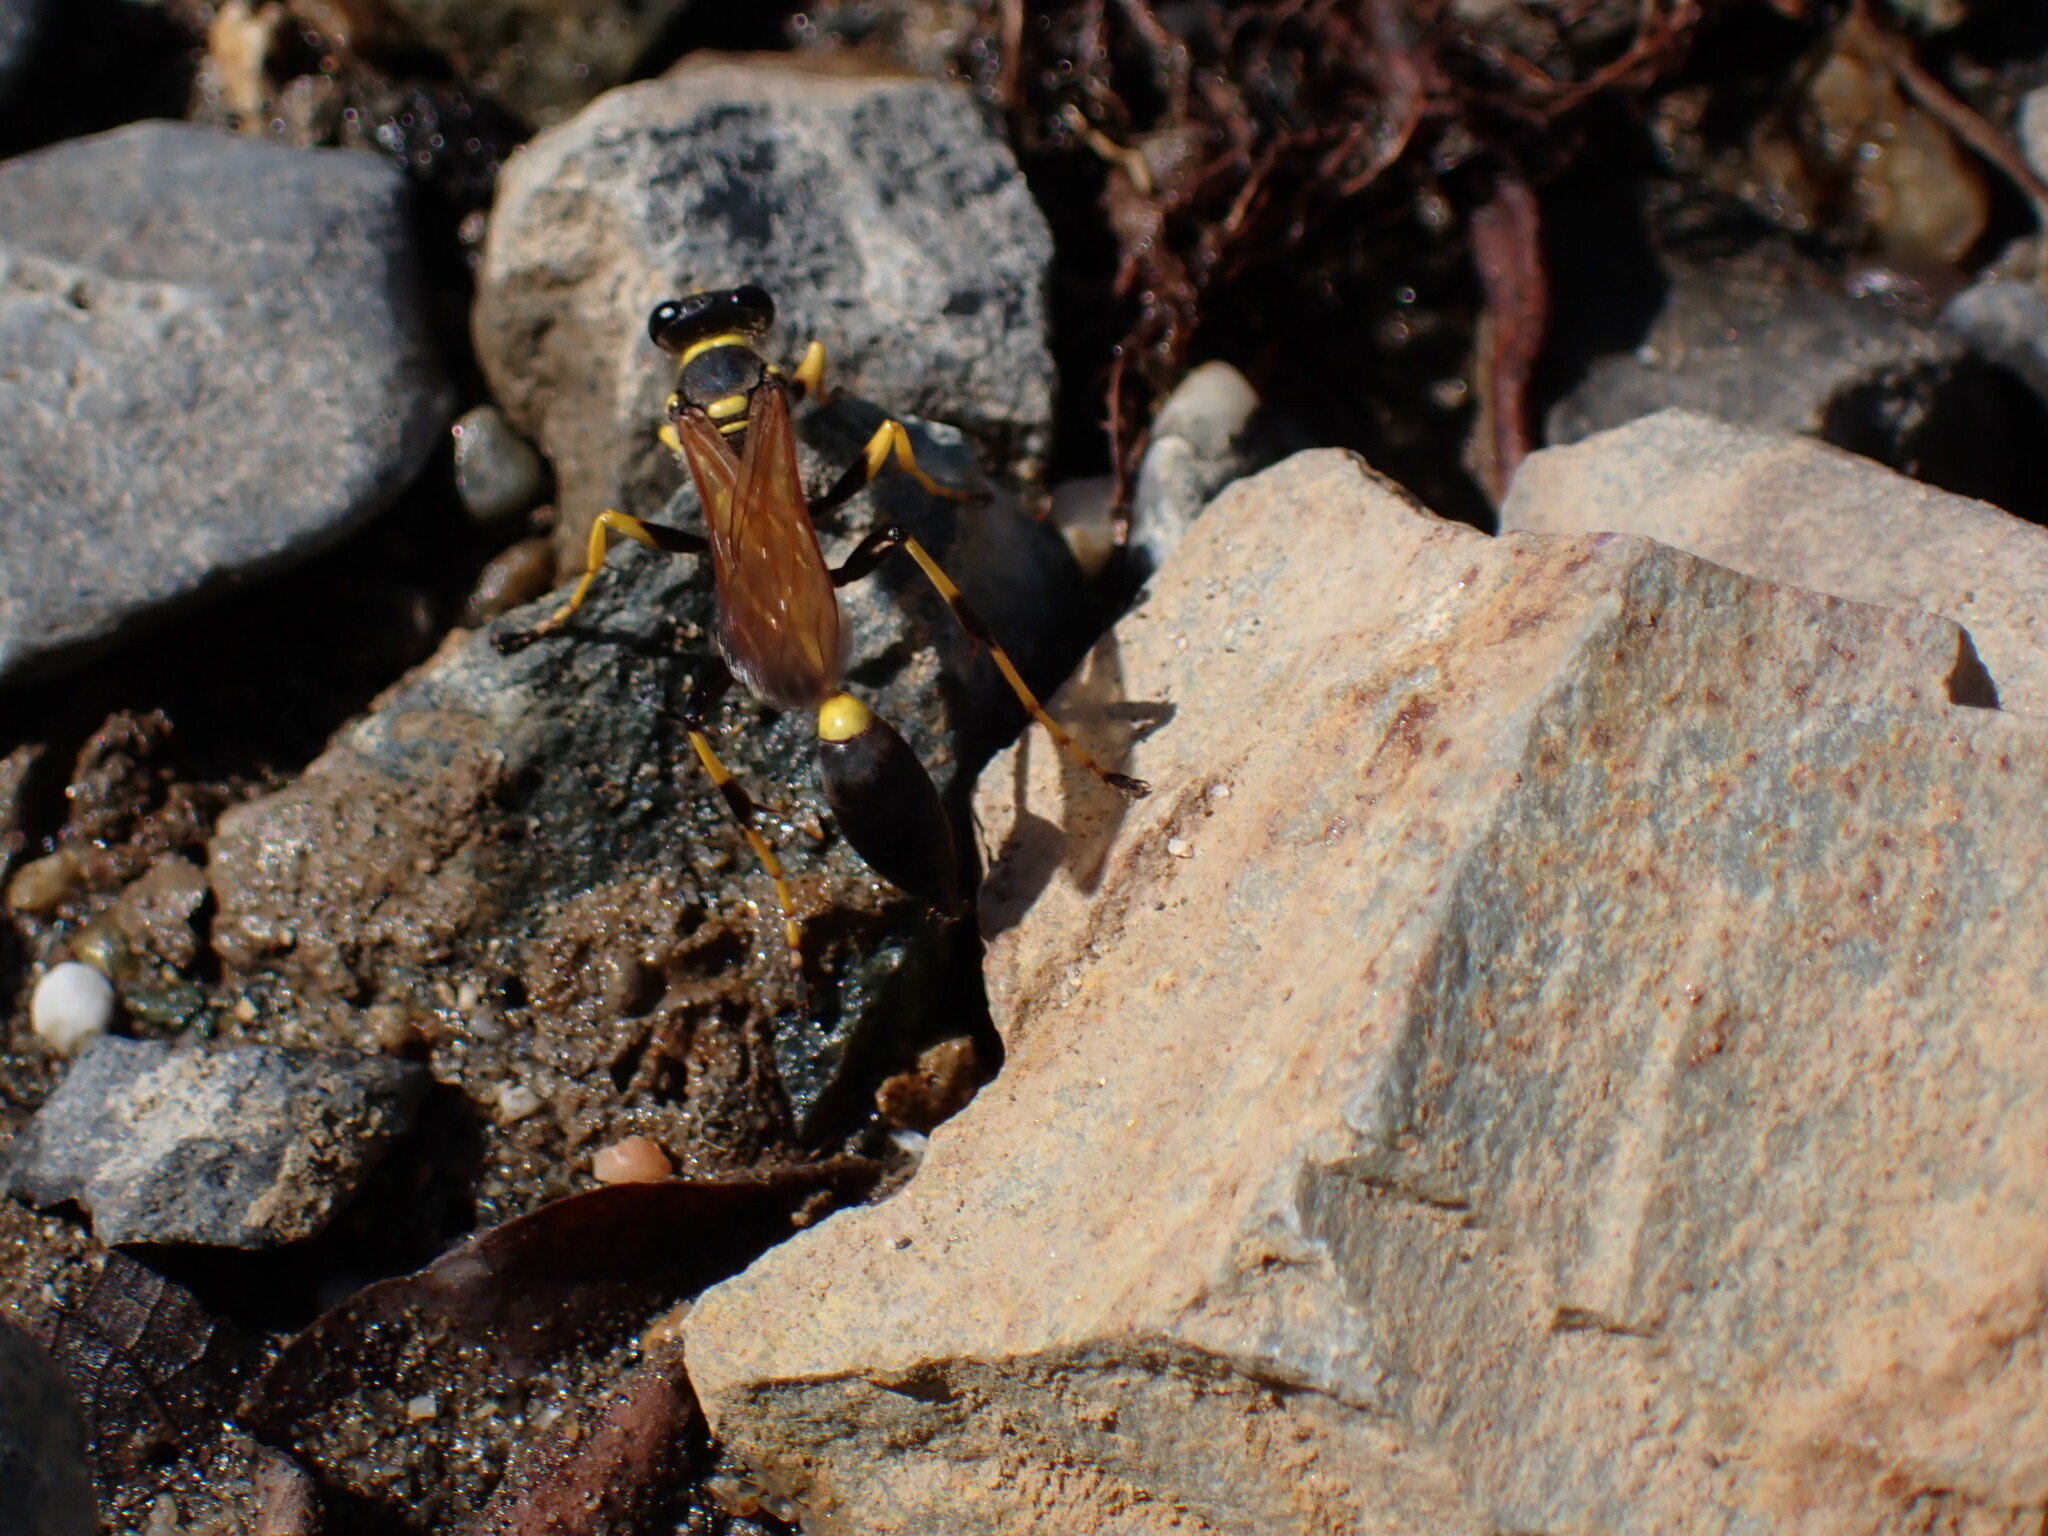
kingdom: Animalia
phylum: Arthropoda
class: Insecta
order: Hymenoptera
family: Sphecidae
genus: Sceliphron
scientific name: Sceliphron caementarium
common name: Mud dauber
